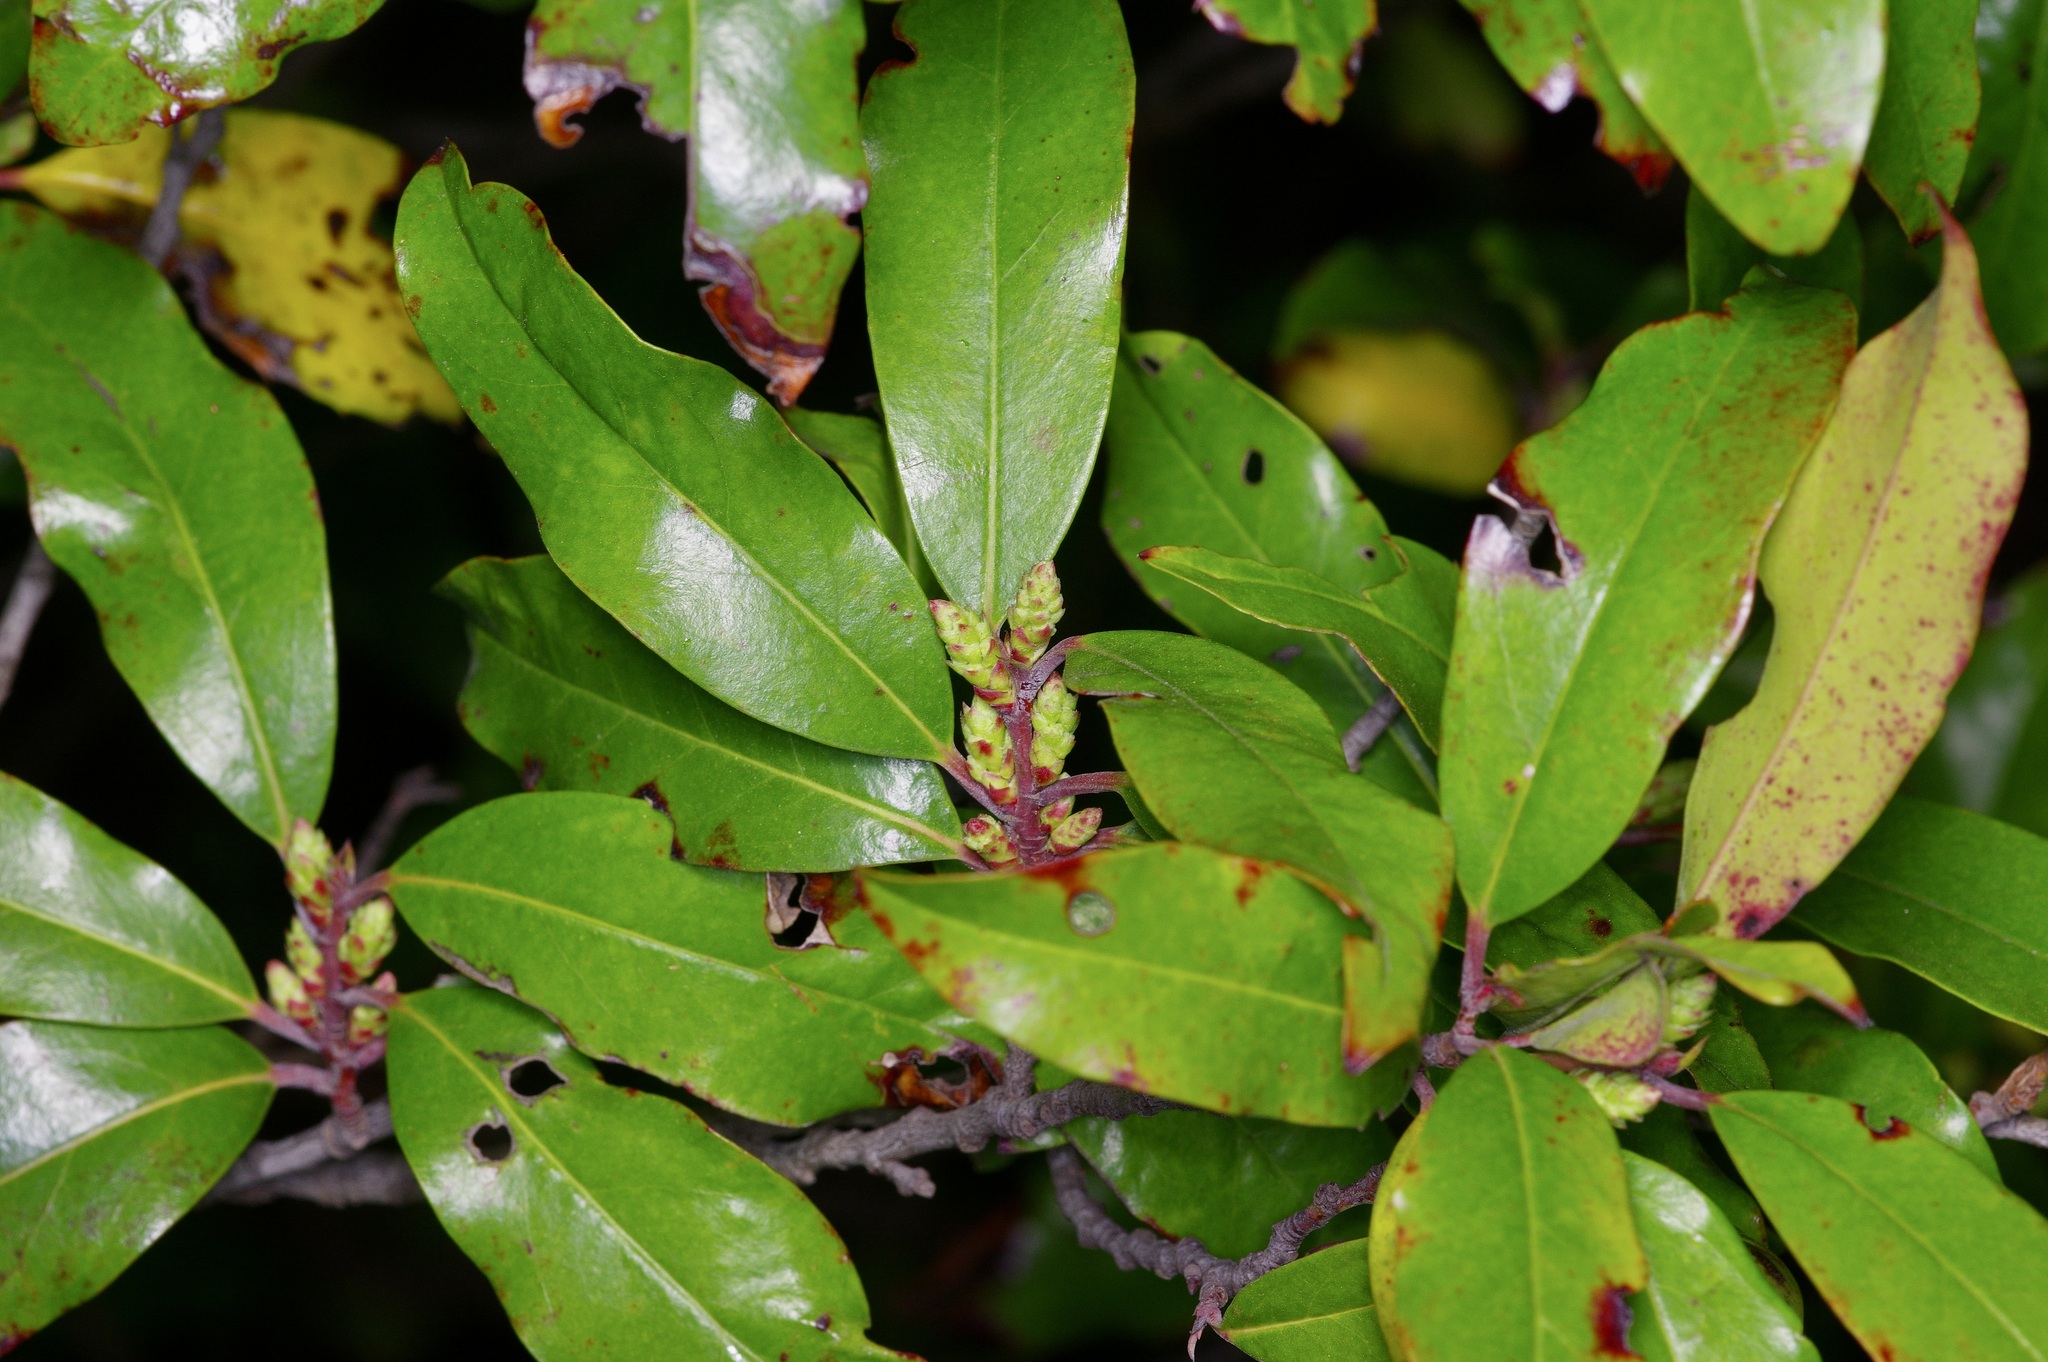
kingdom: Plantae
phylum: Tracheophyta
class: Magnoliopsida
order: Rosales
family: Rosaceae
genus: Prunus
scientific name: Prunus caroliniana
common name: Carolina laurel cherry
